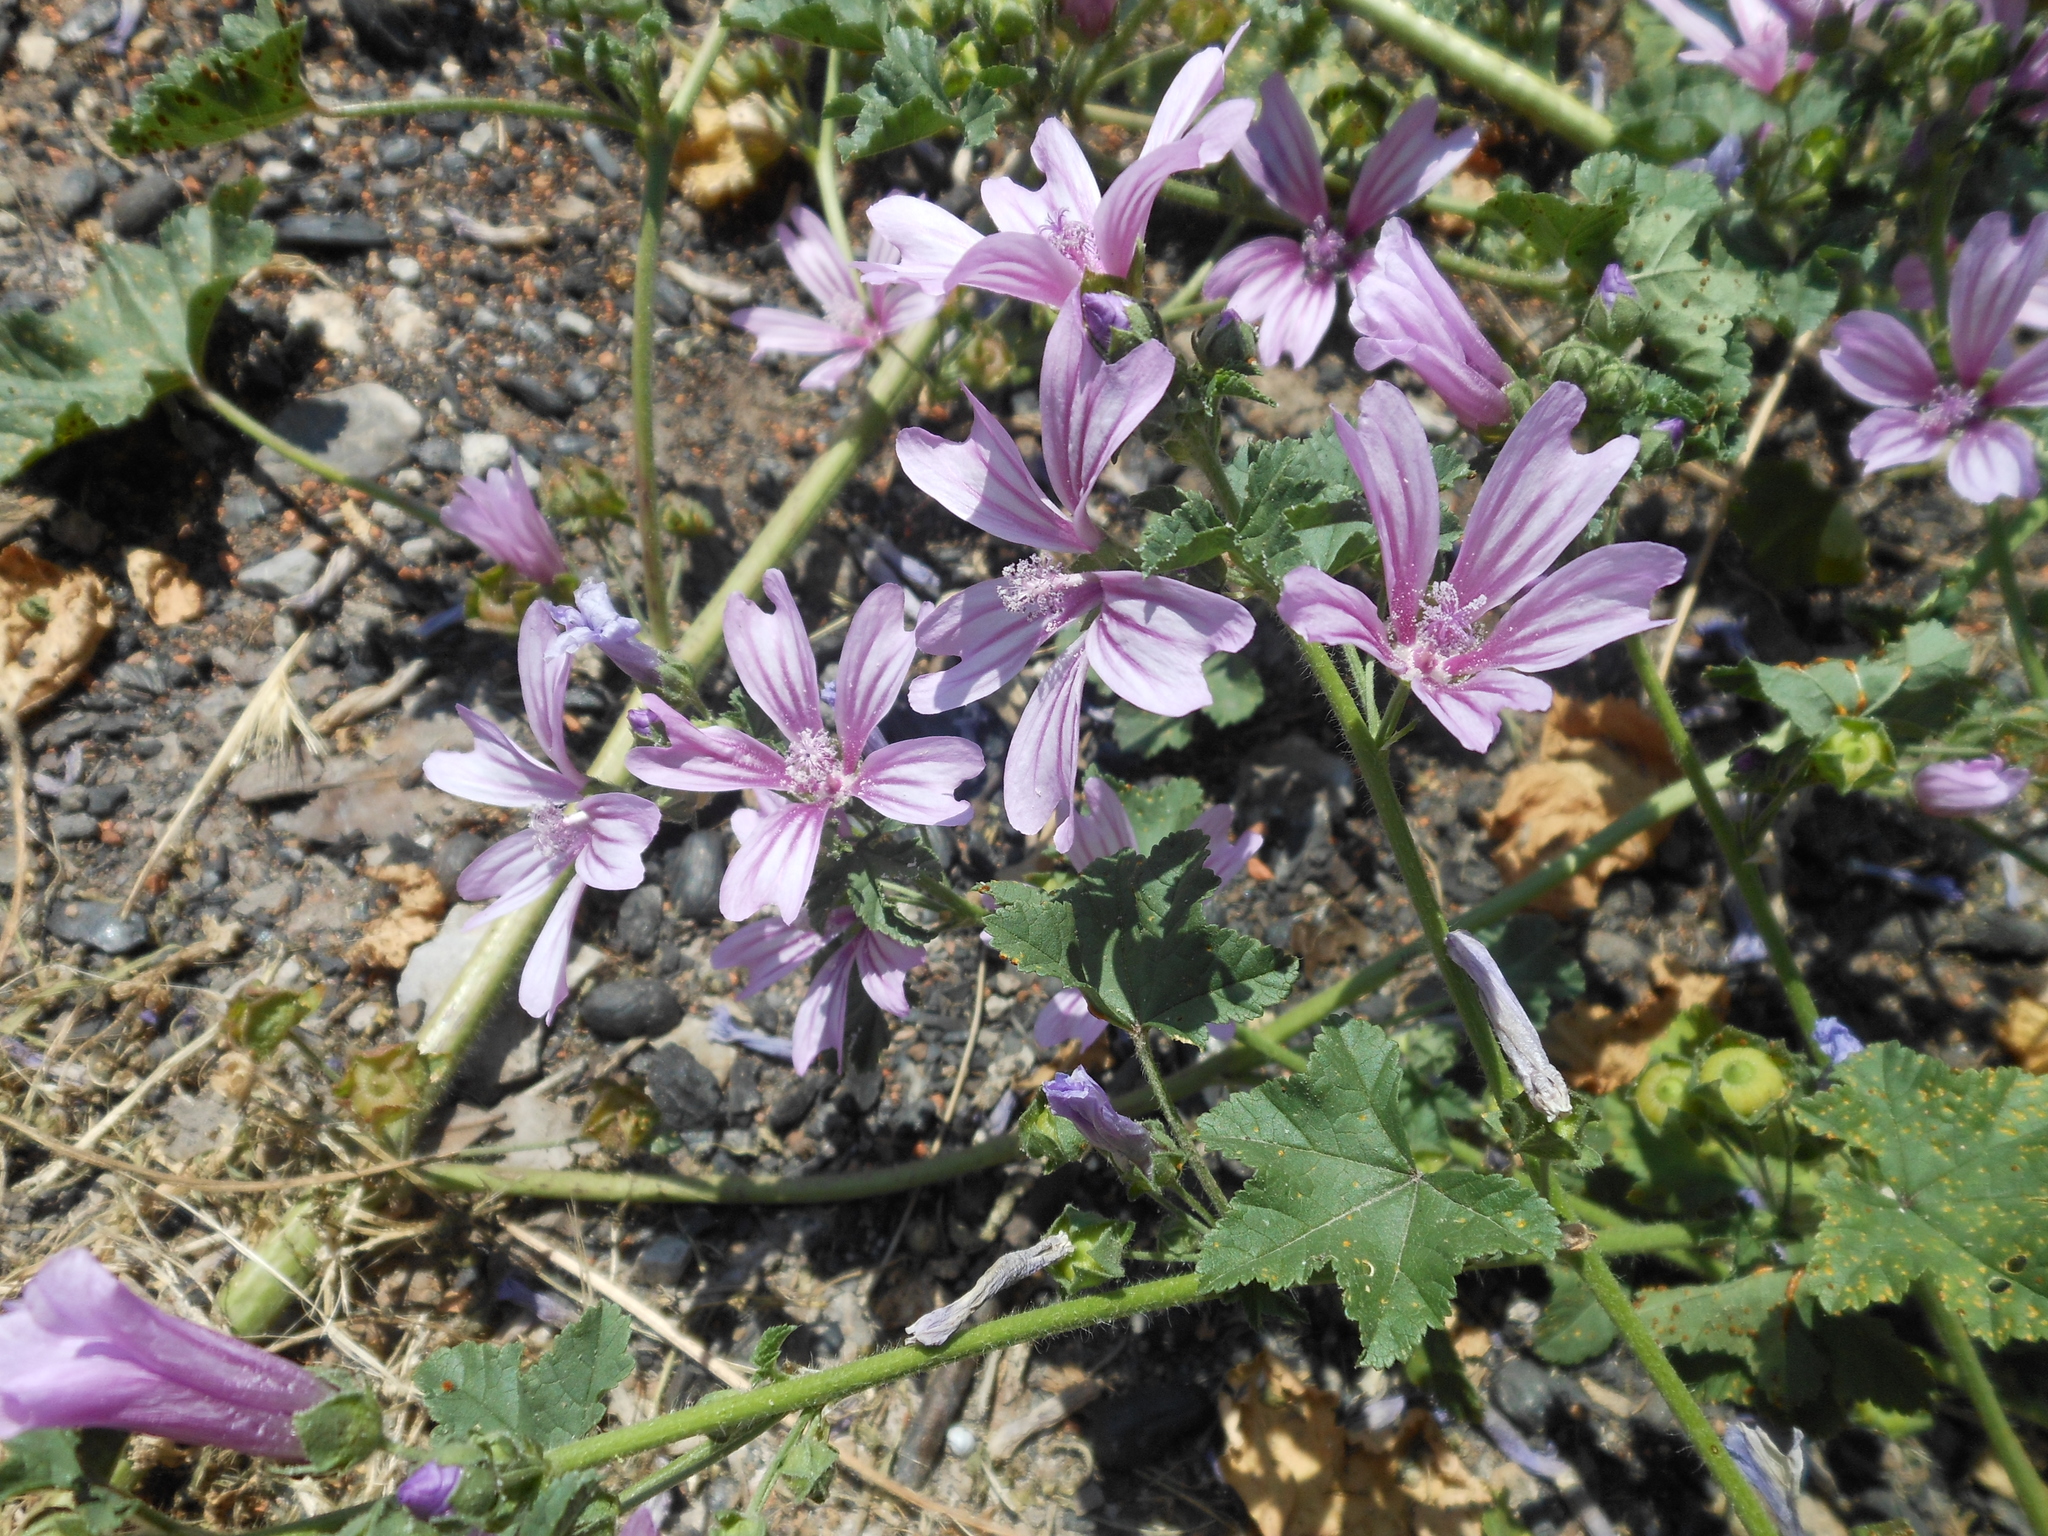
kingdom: Plantae
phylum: Tracheophyta
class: Magnoliopsida
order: Malvales
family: Malvaceae
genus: Malva
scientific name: Malva sylvestris
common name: Common mallow
